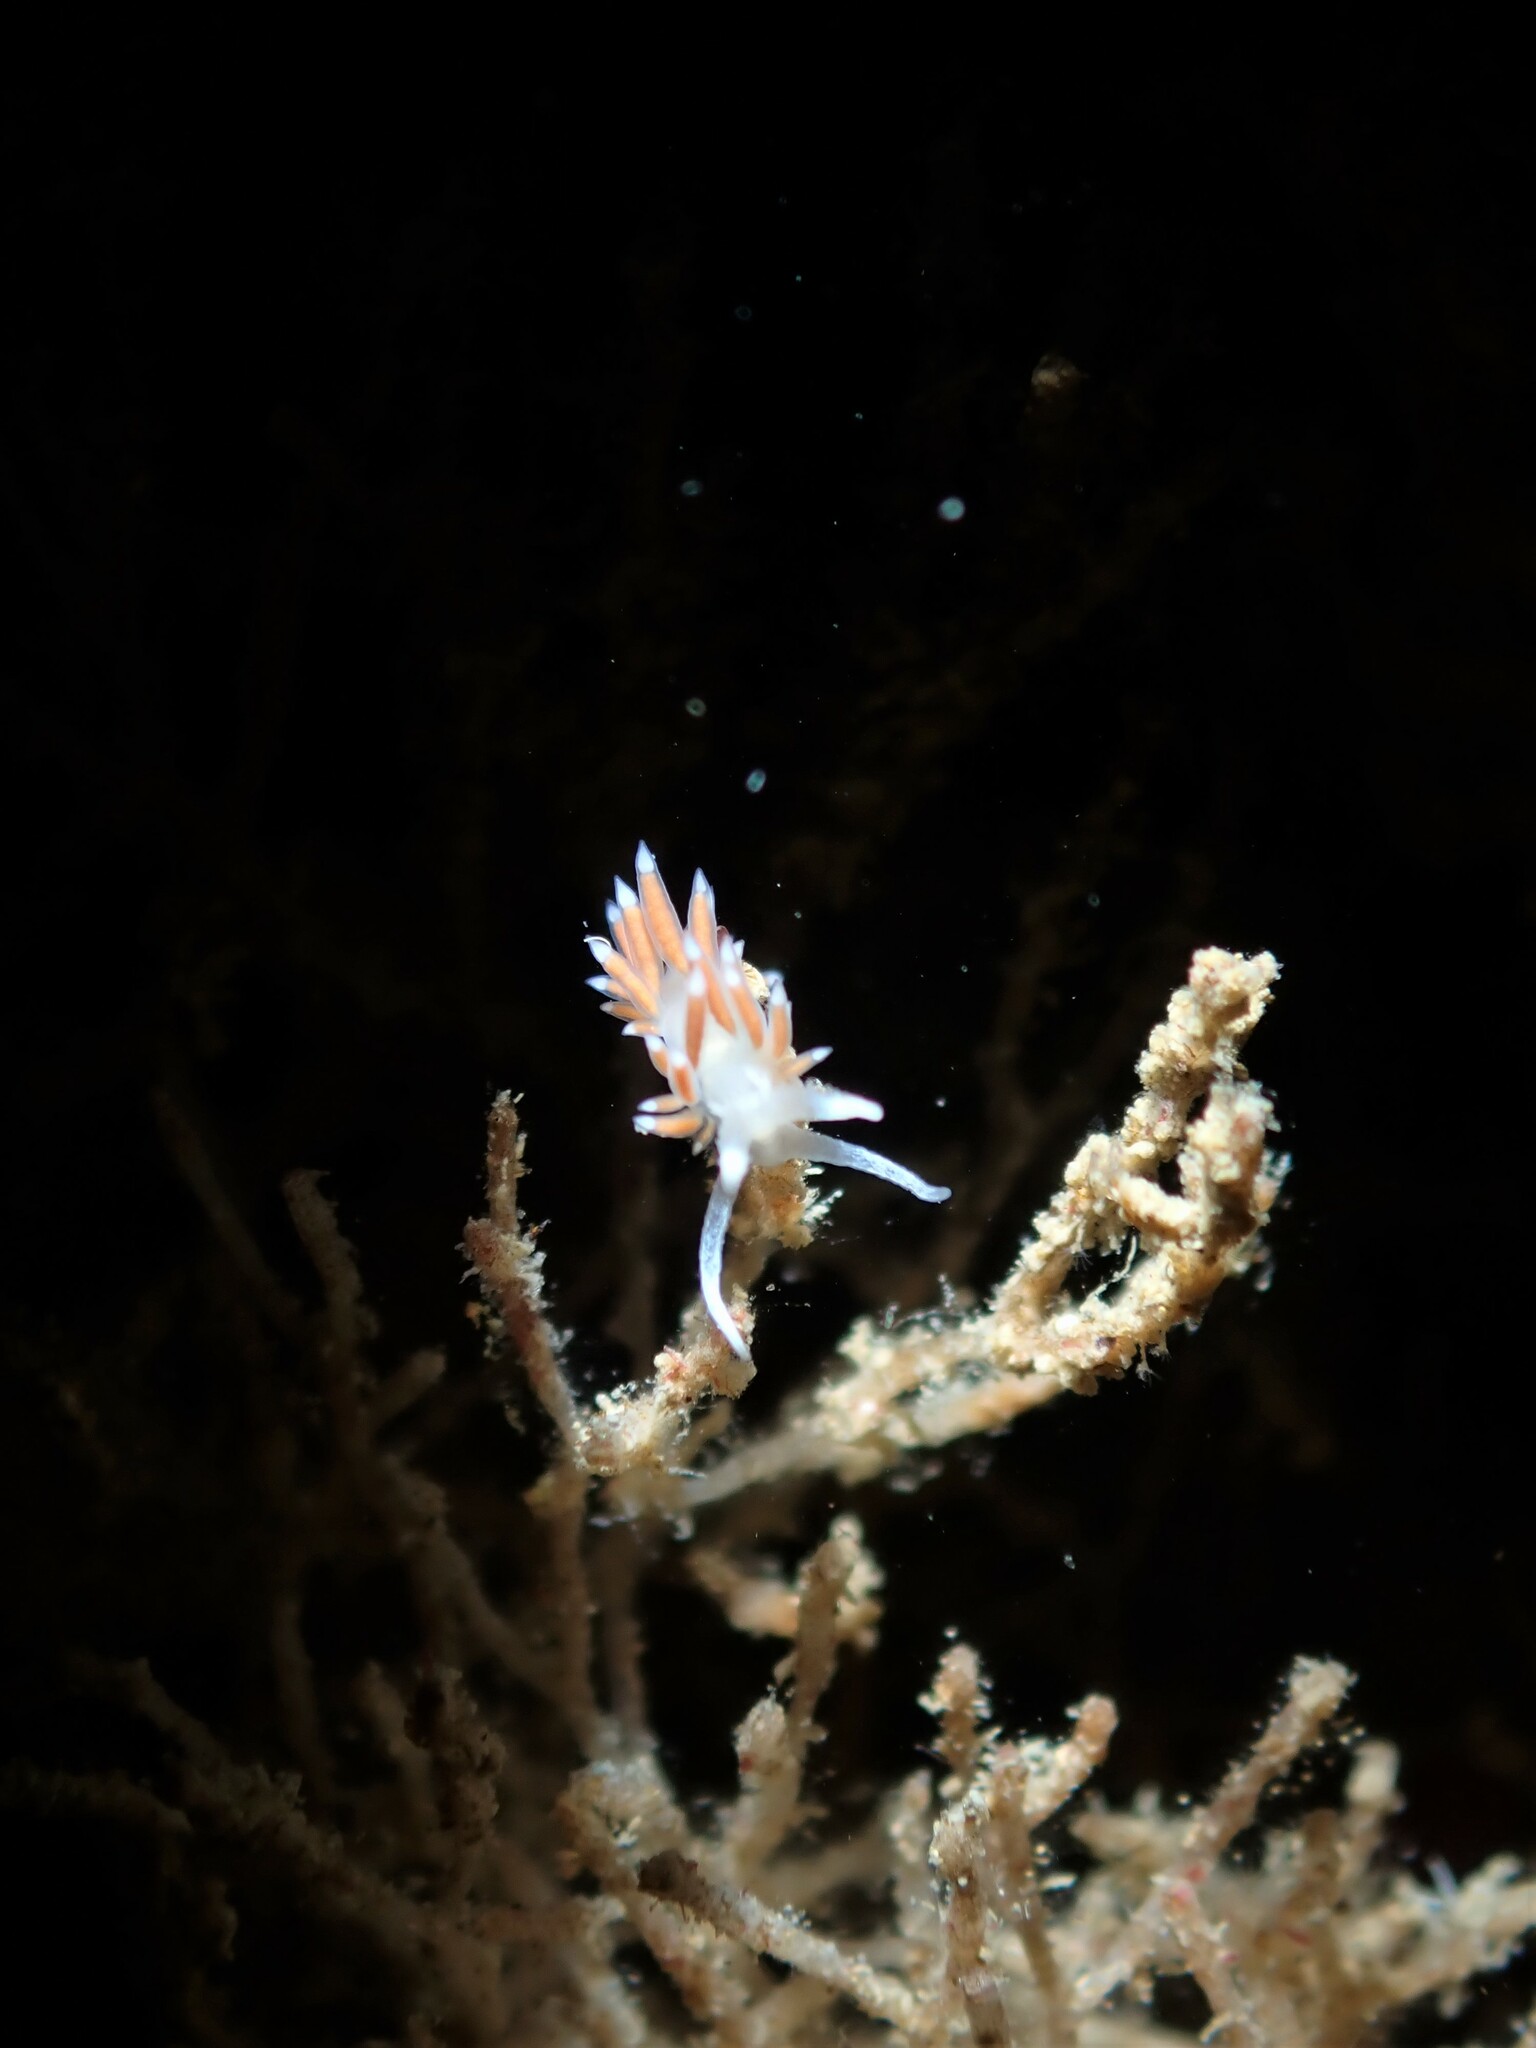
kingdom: Animalia
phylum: Mollusca
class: Gastropoda
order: Nudibranchia
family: Flabellinidae
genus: Coryphellina
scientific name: Coryphellina albomarginata
